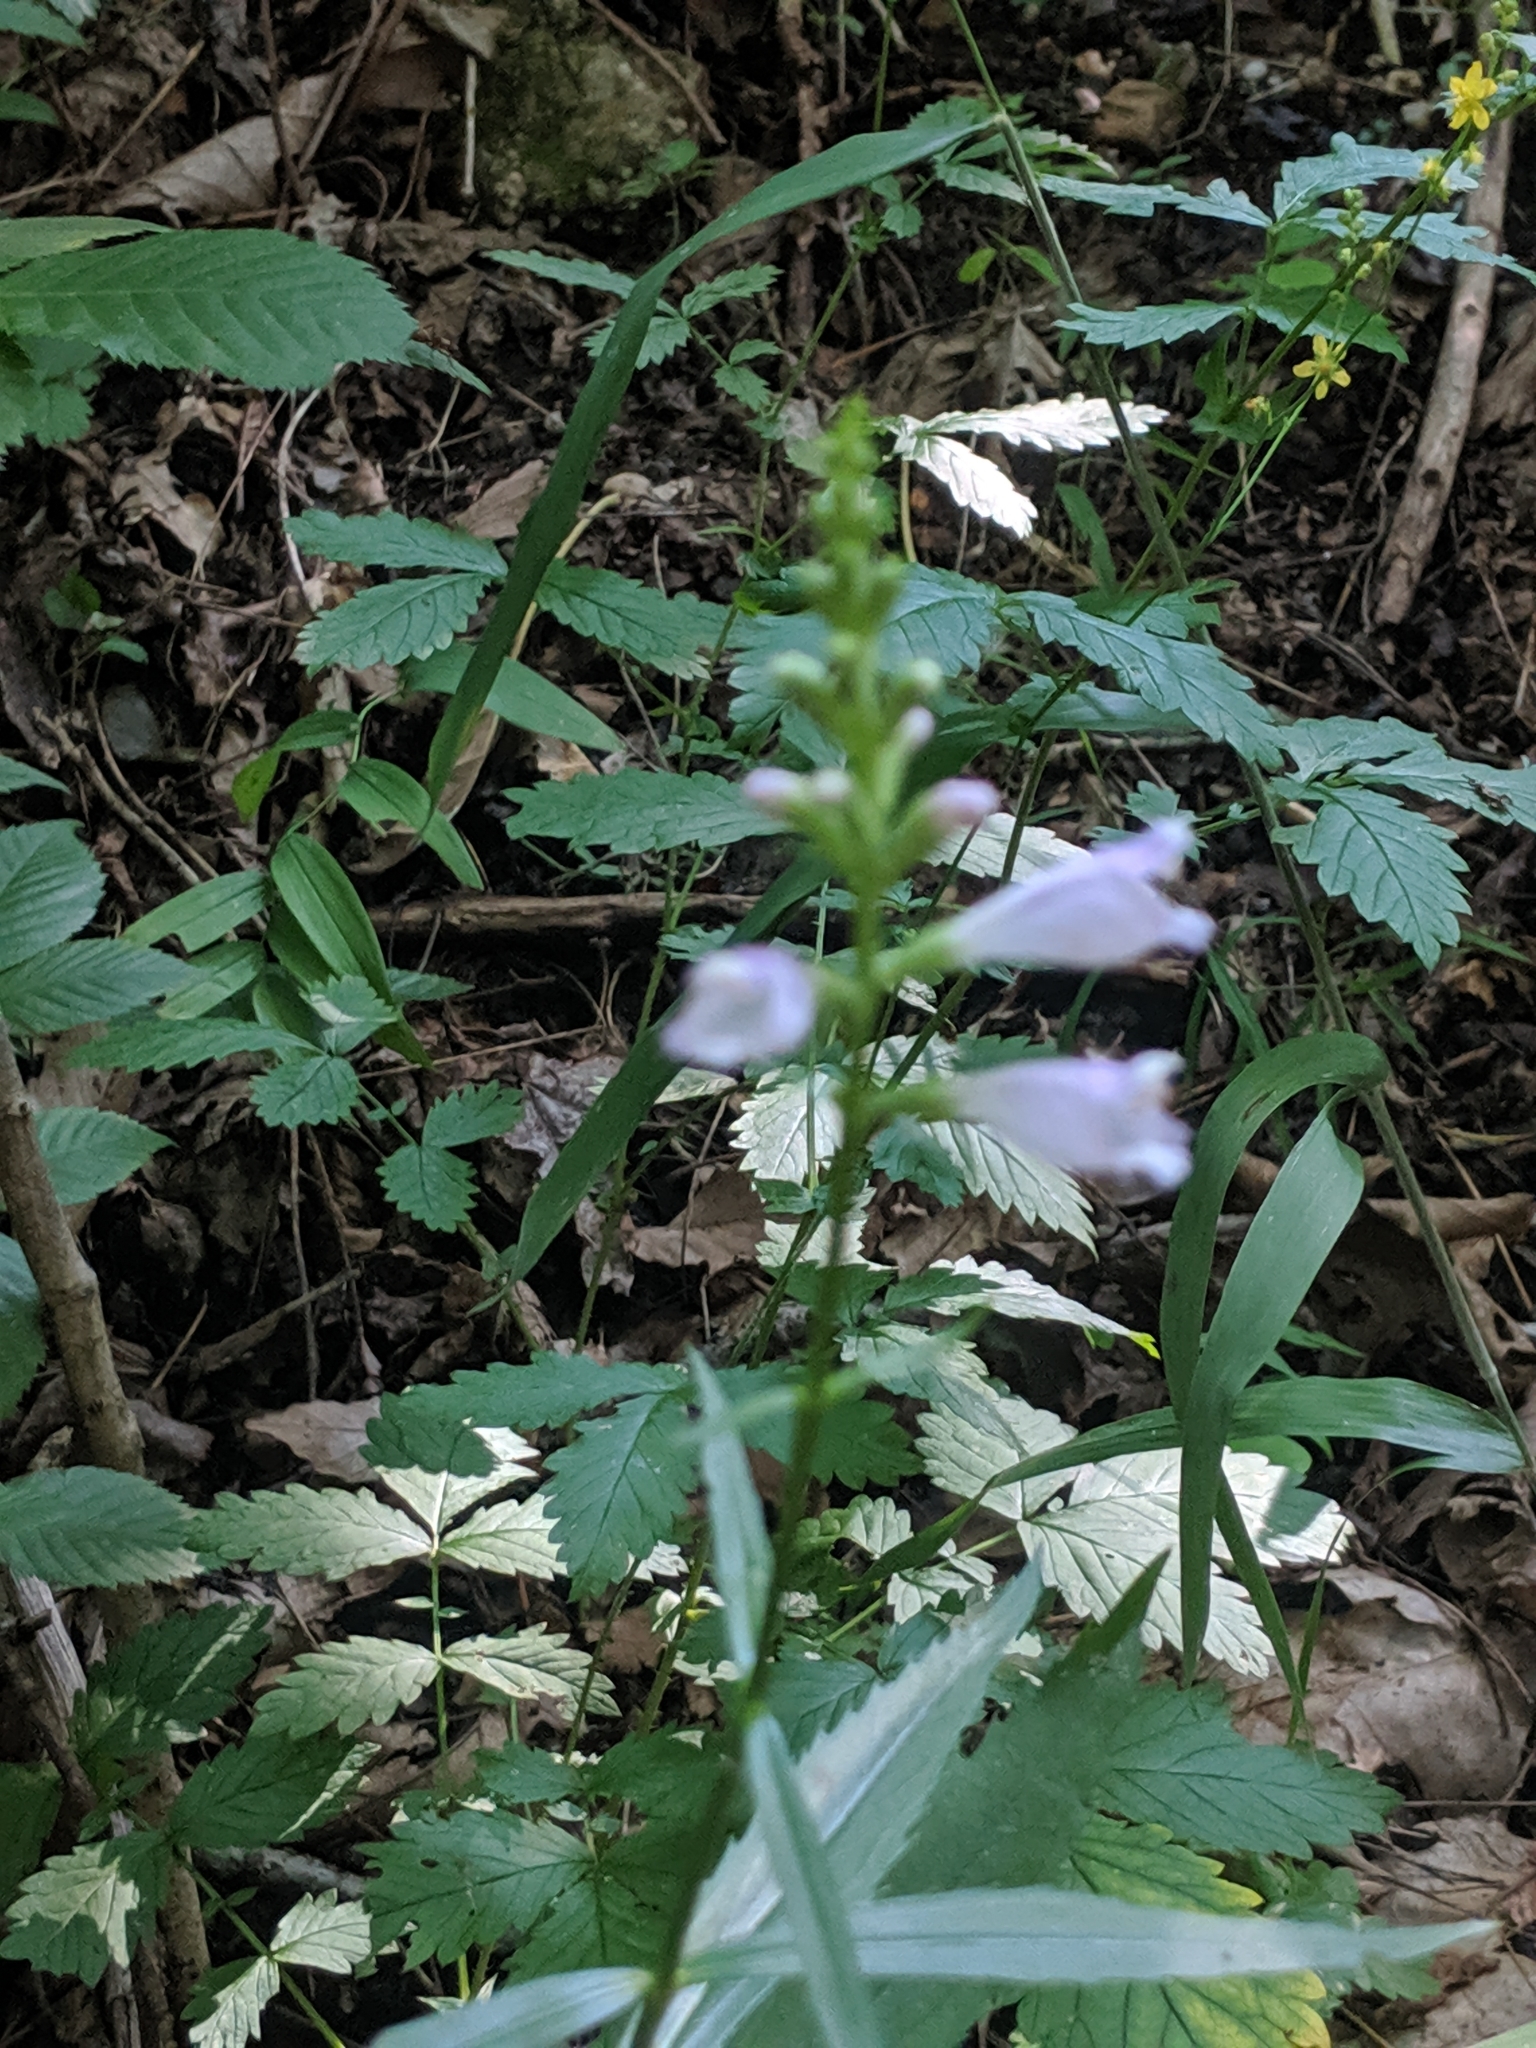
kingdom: Plantae
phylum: Tracheophyta
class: Magnoliopsida
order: Lamiales
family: Lamiaceae
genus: Physostegia
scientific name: Physostegia virginiana
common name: Obedient-plant
